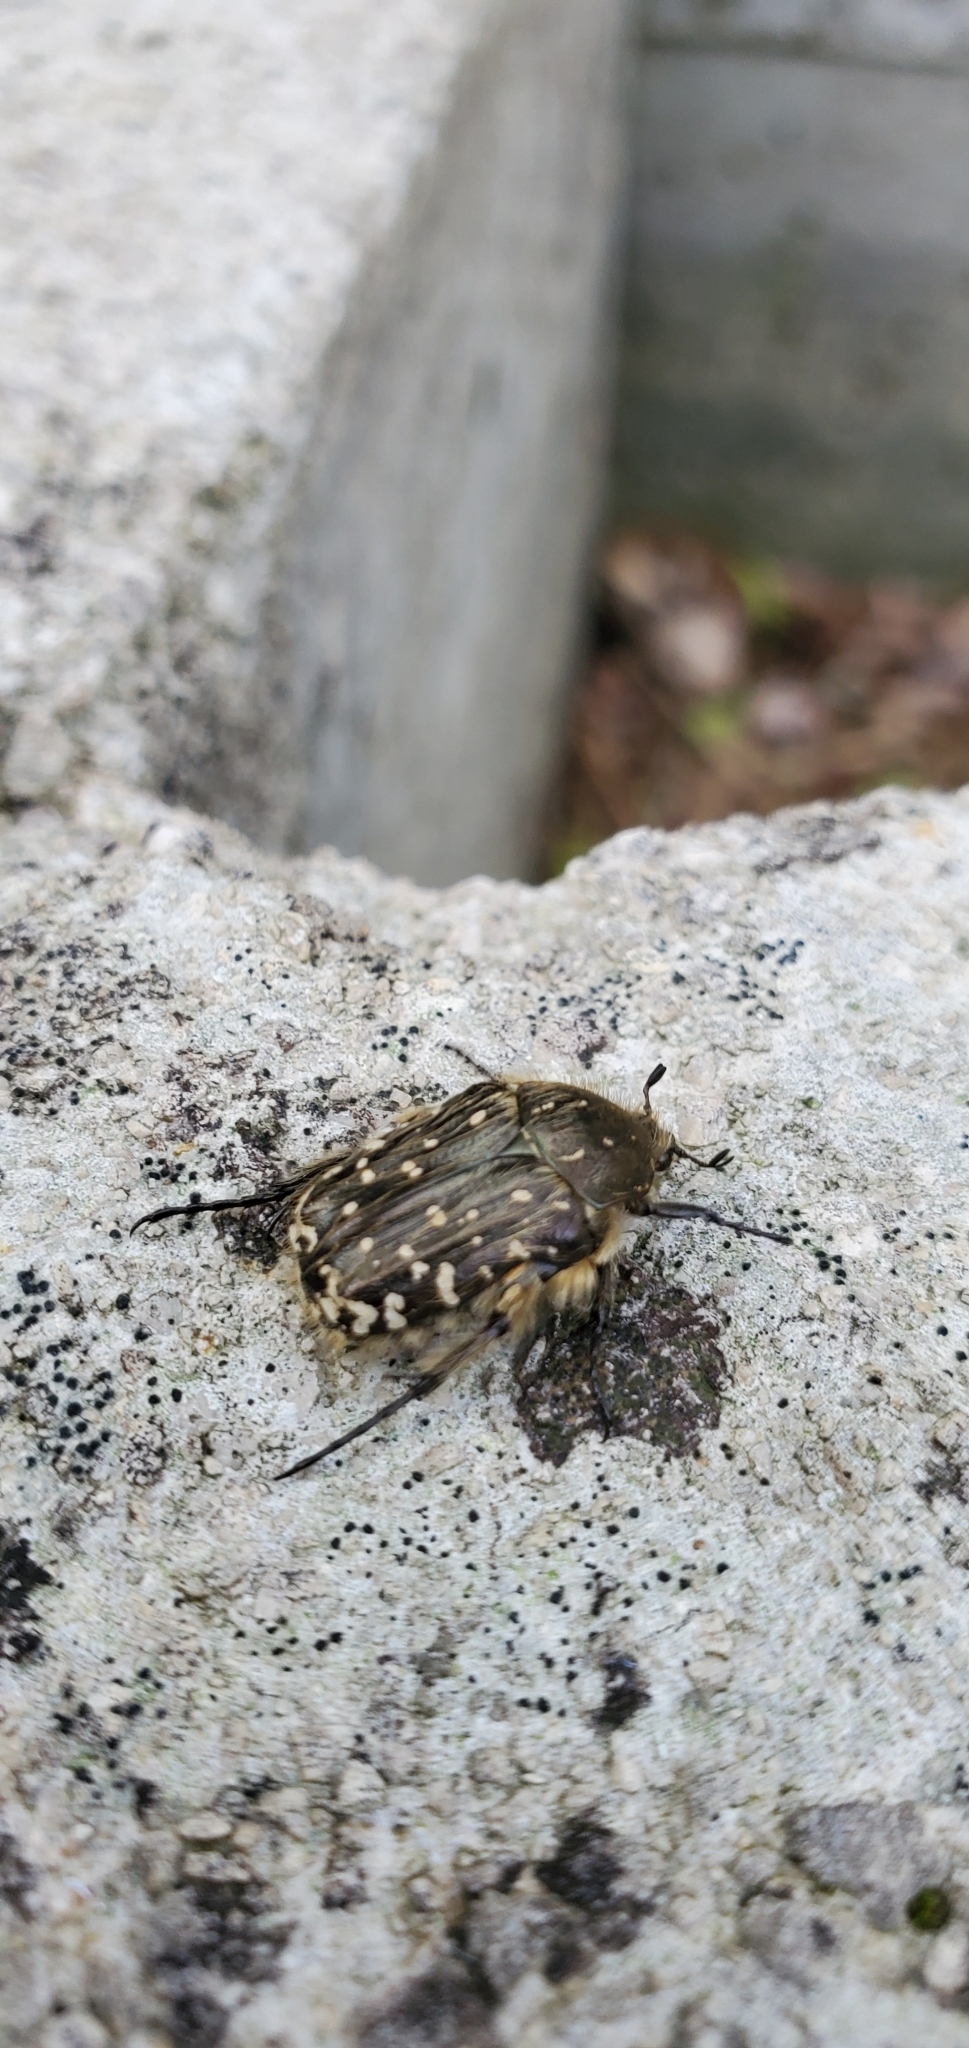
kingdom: Animalia
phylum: Arthropoda
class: Insecta
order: Coleoptera
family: Scarabaeidae
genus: Oxythyrea
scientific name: Oxythyrea funesta
